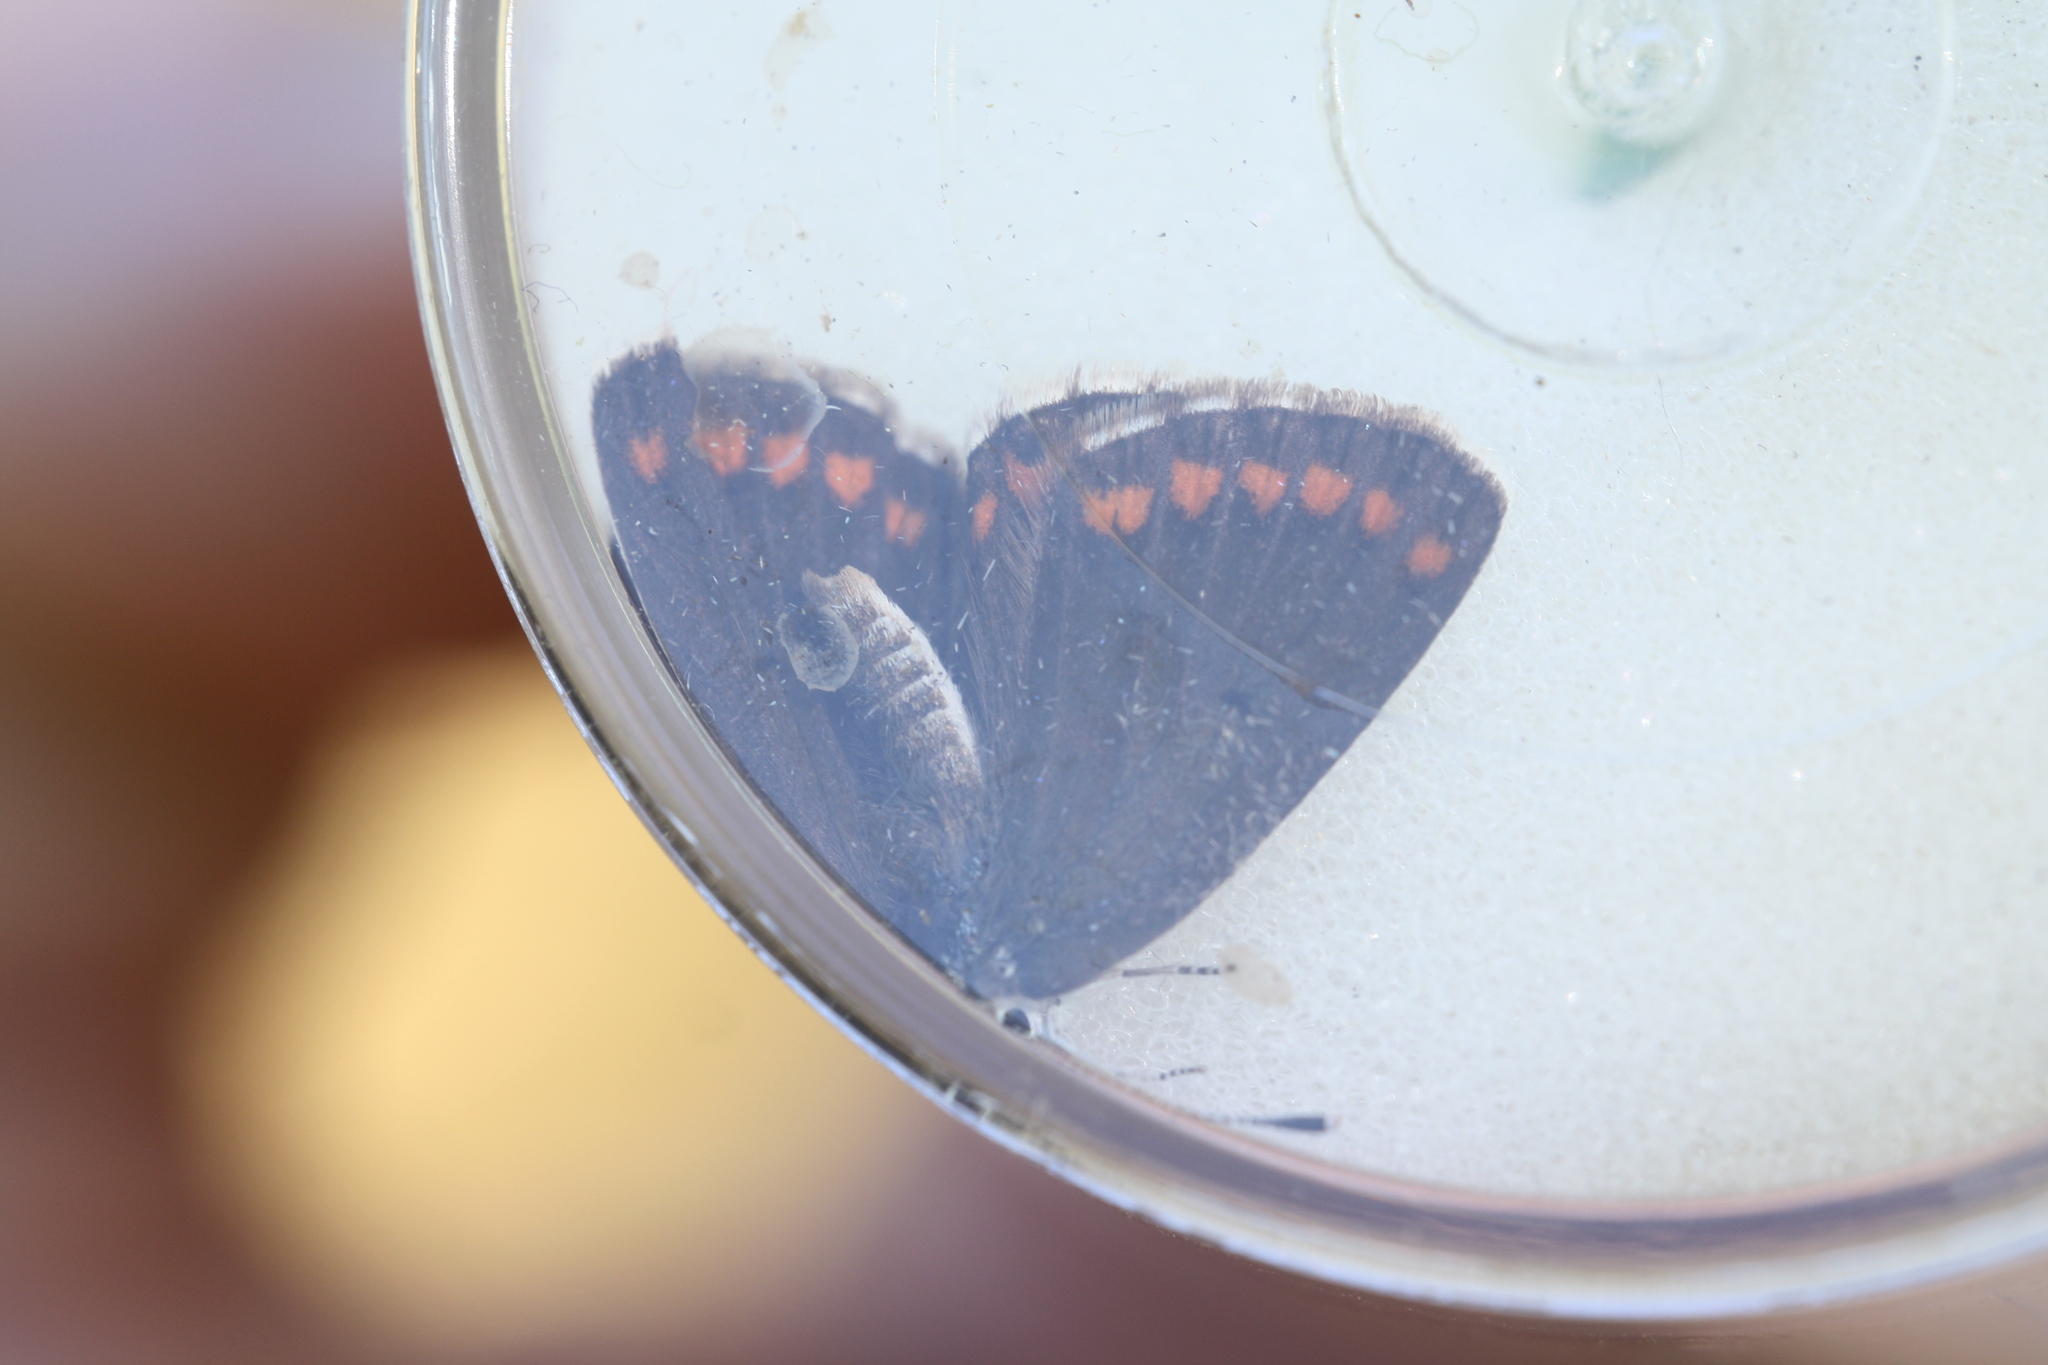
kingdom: Animalia
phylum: Arthropoda
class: Insecta
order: Lepidoptera
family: Lycaenidae
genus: Aricia
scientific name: Aricia agestis
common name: Brown argus
